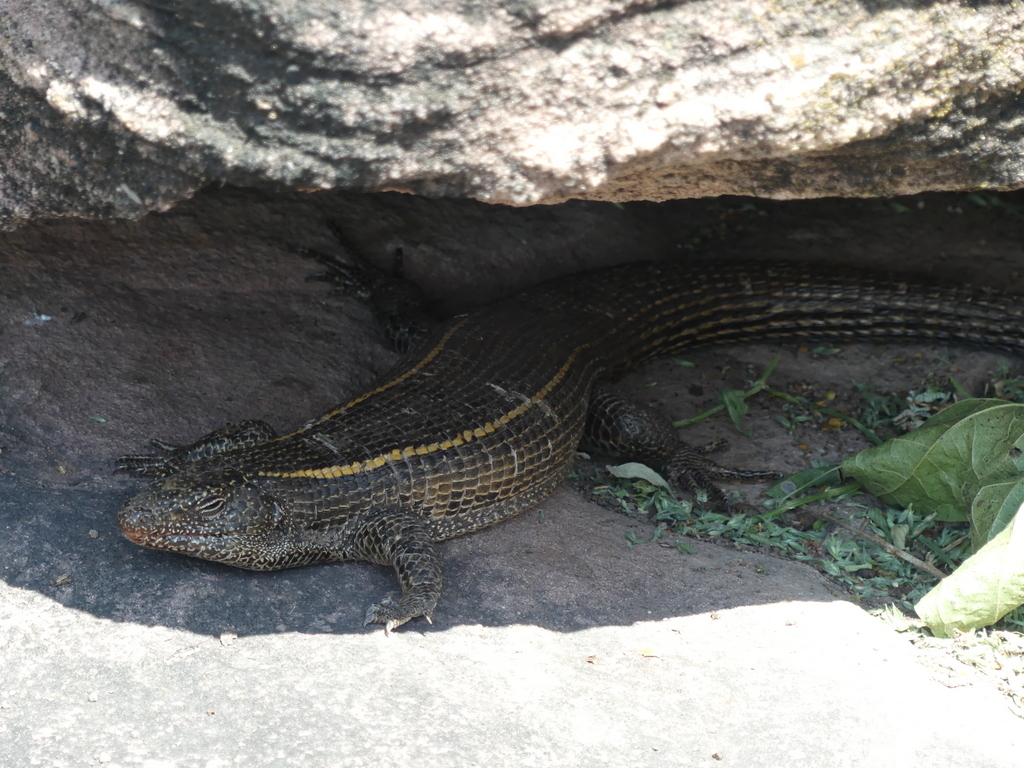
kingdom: Animalia
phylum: Chordata
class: Squamata
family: Gerrhosauridae
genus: Matobosaurus
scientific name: Matobosaurus validus
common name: Common giant plated lizard
